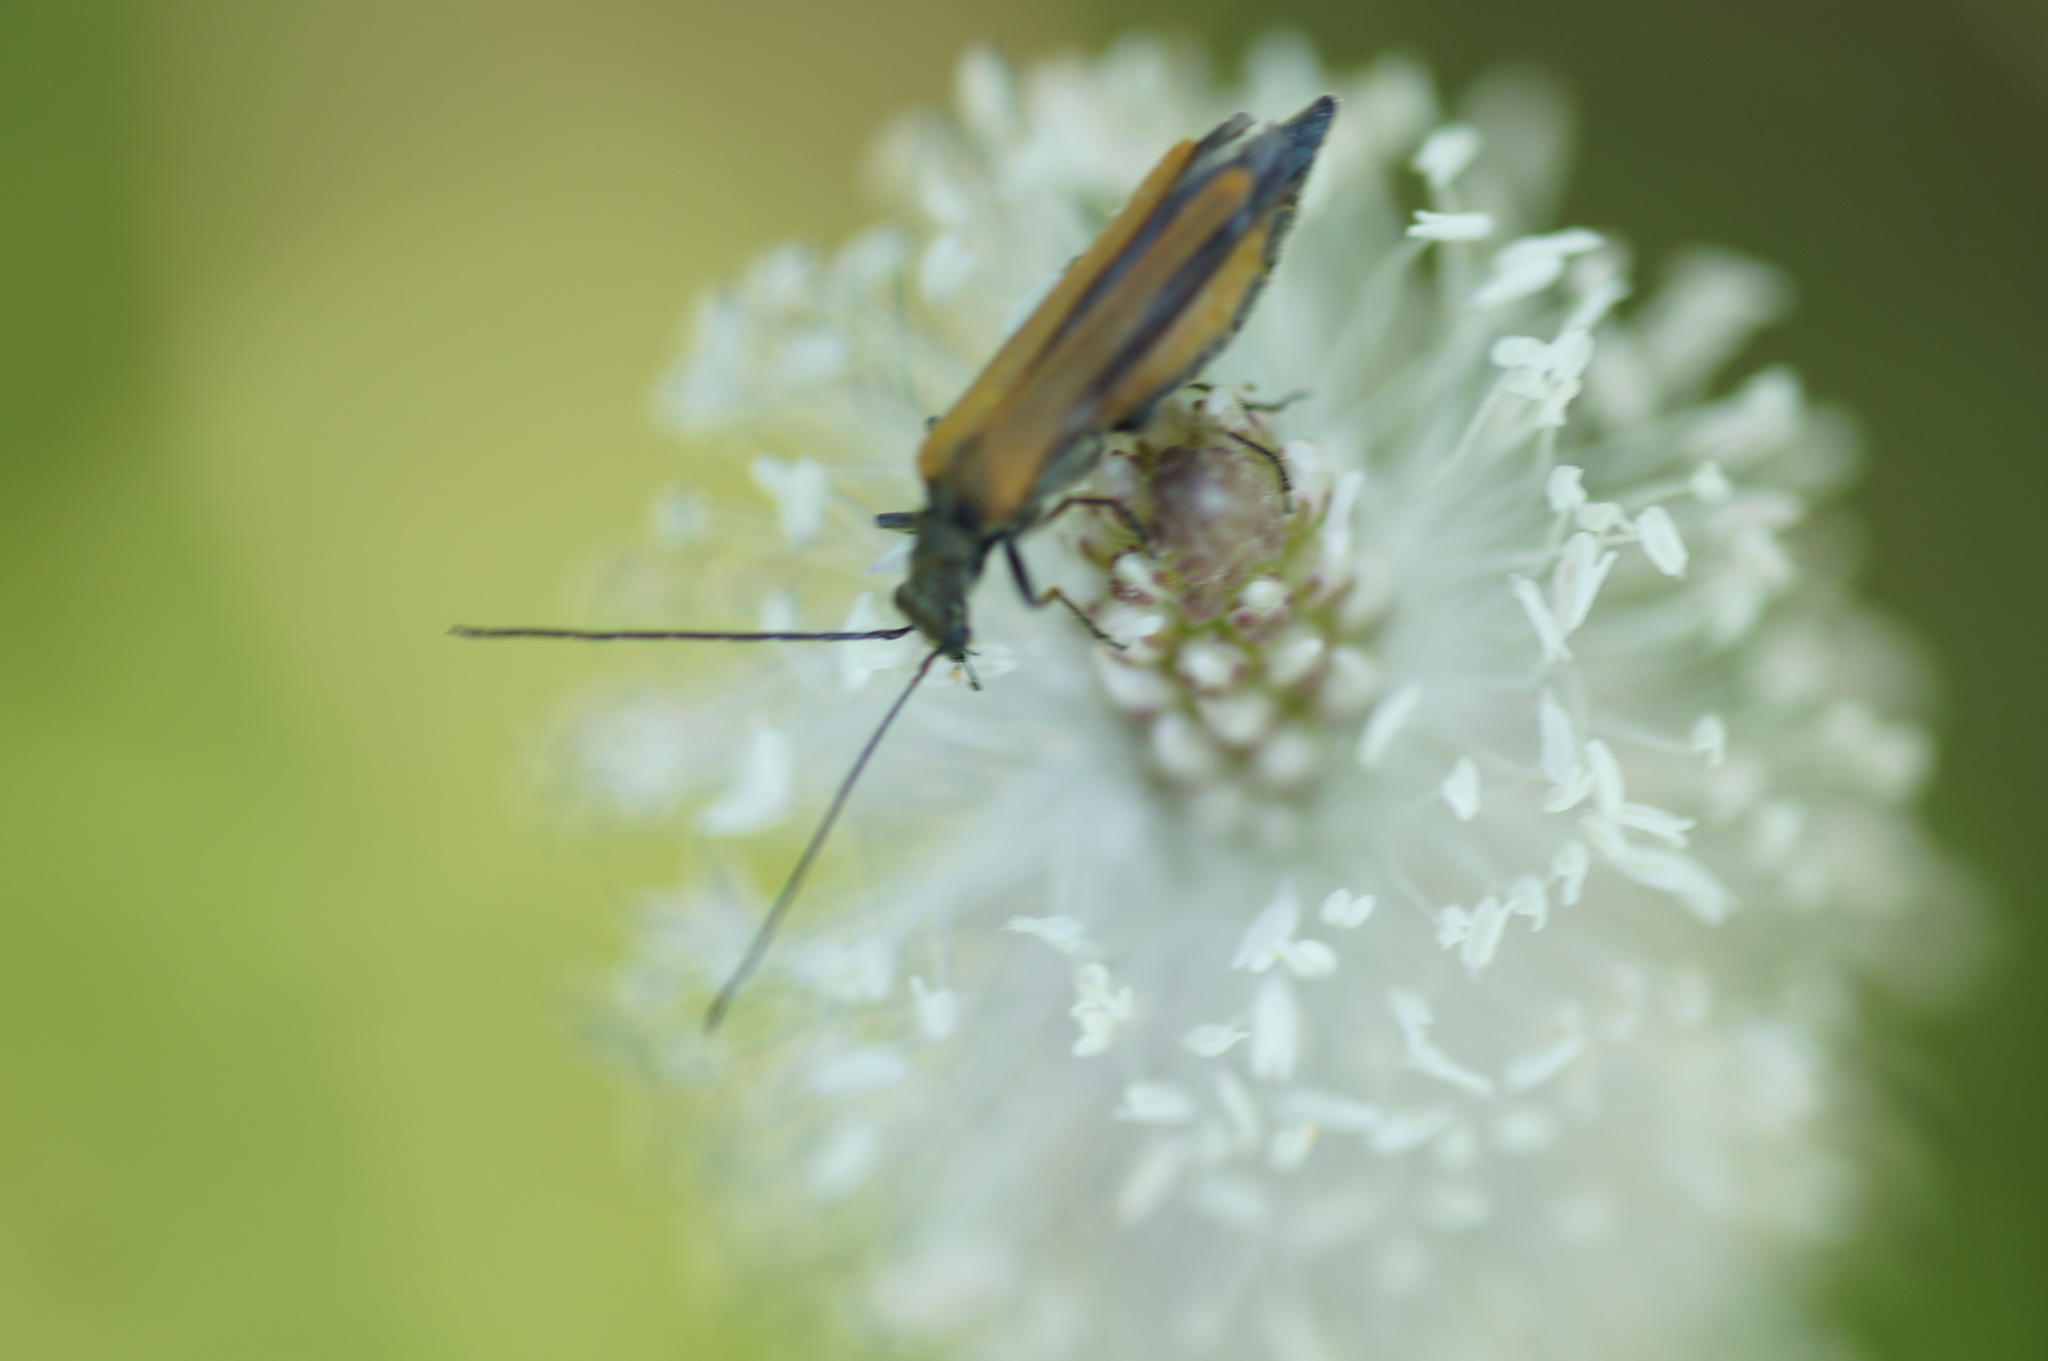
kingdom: Animalia
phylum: Arthropoda
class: Insecta
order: Coleoptera
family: Oedemeridae
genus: Oedemera
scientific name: Oedemera femorata
